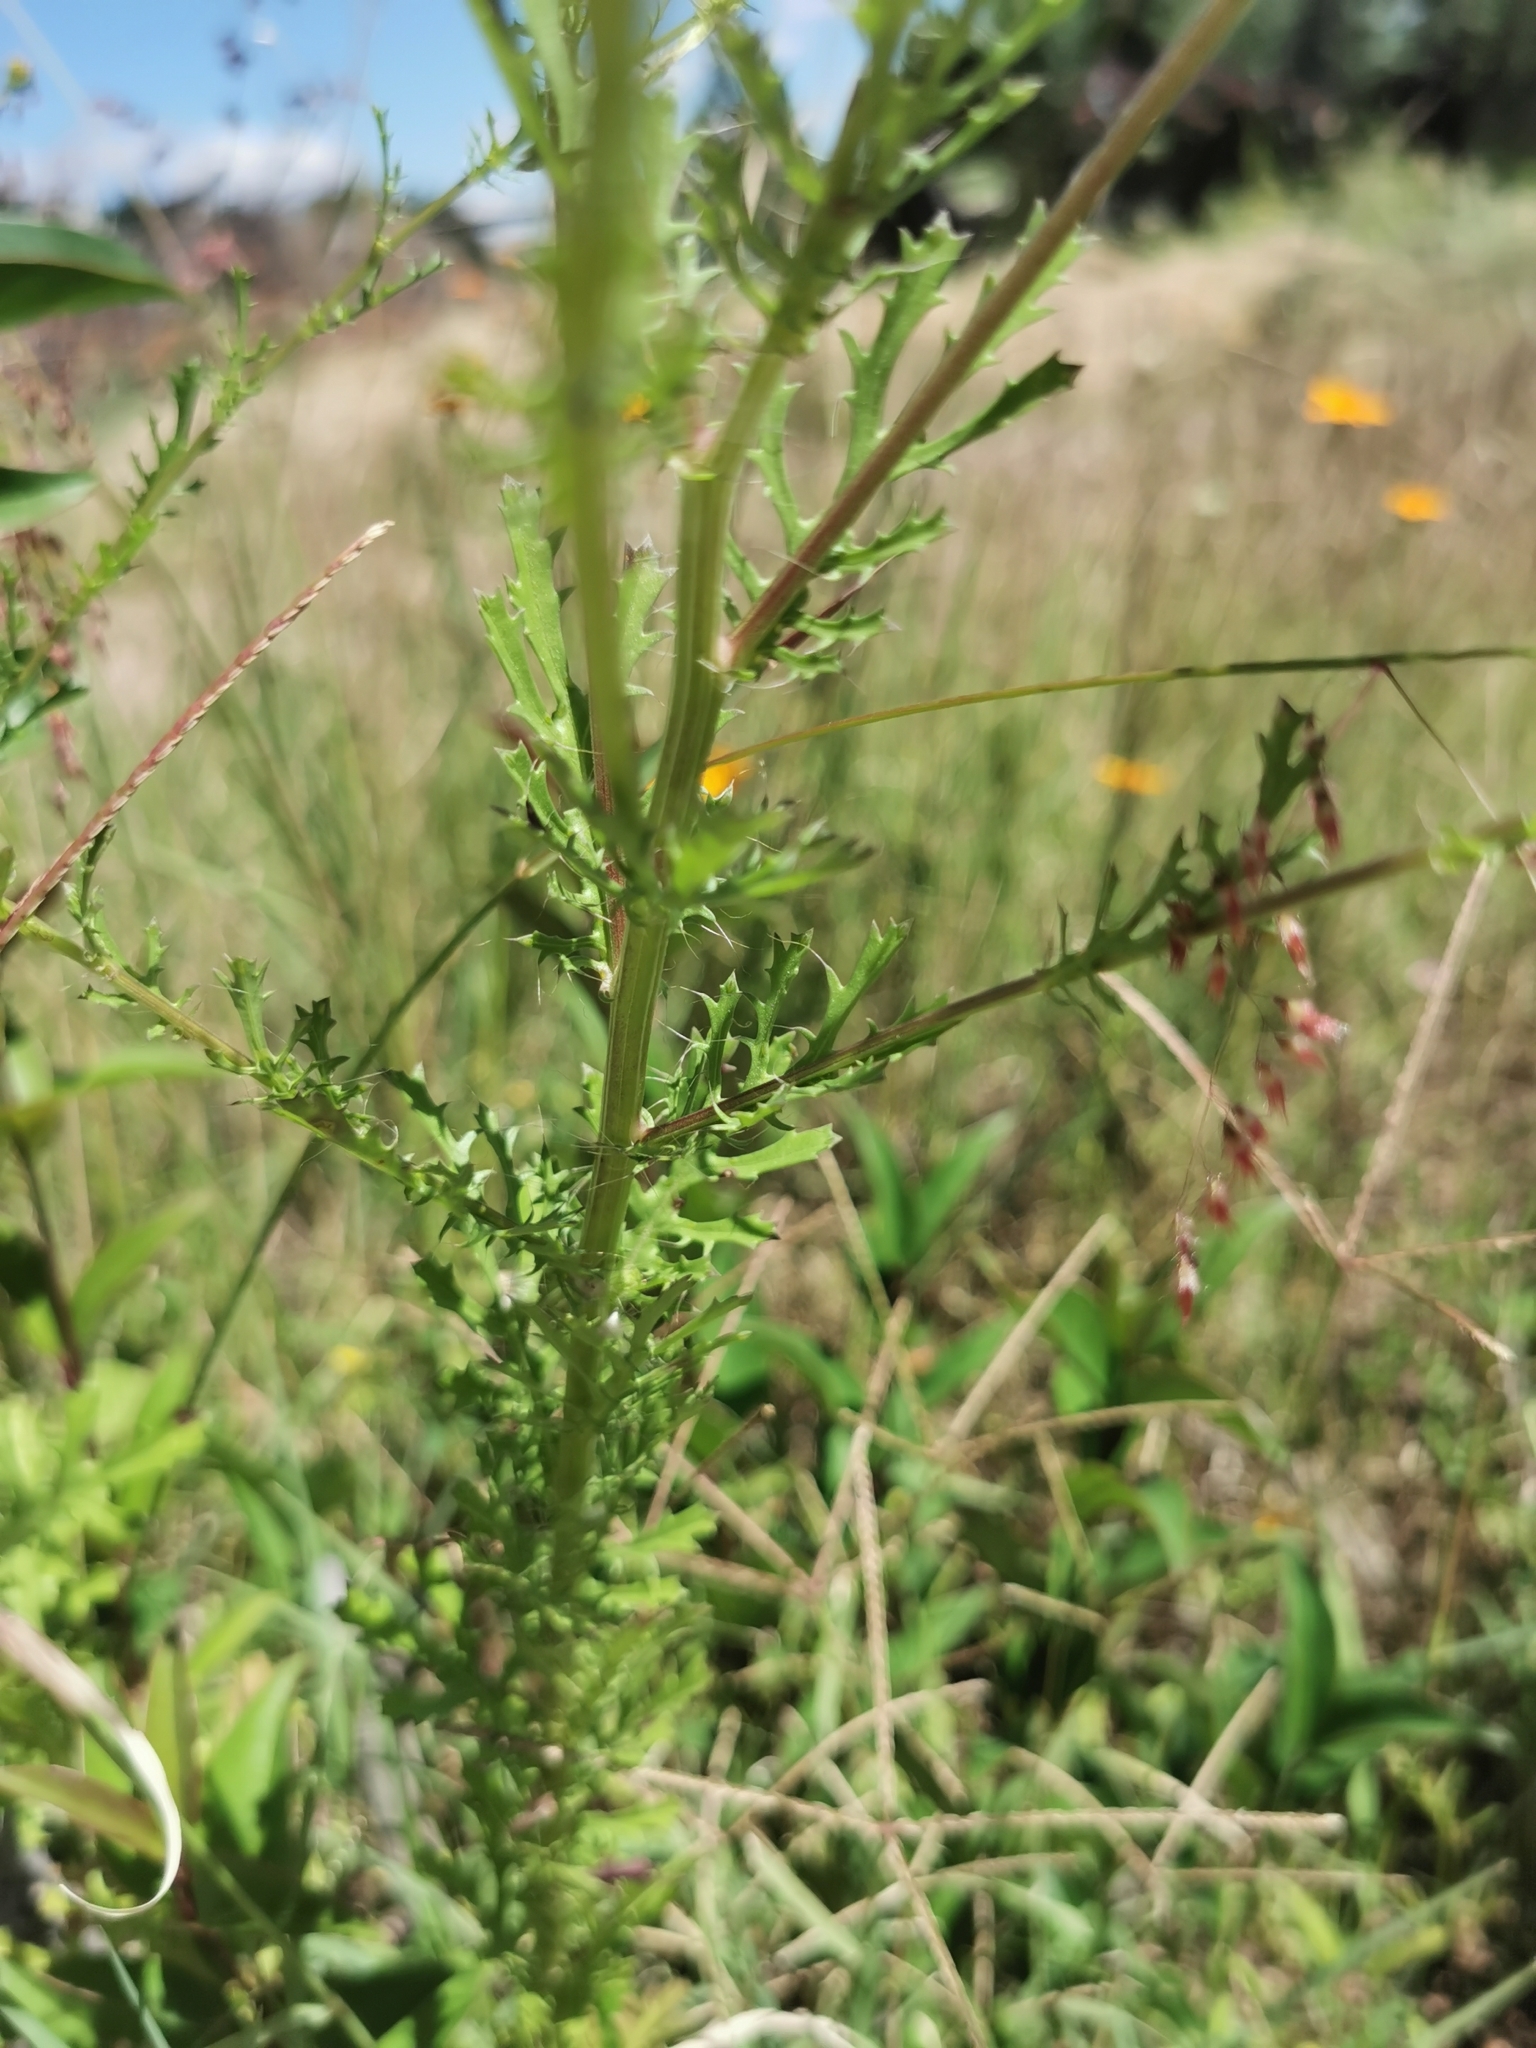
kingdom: Plantae
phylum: Tracheophyta
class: Liliopsida
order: Poales
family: Poaceae
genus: Cynodon
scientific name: Cynodon dactylon
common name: Bermuda grass
